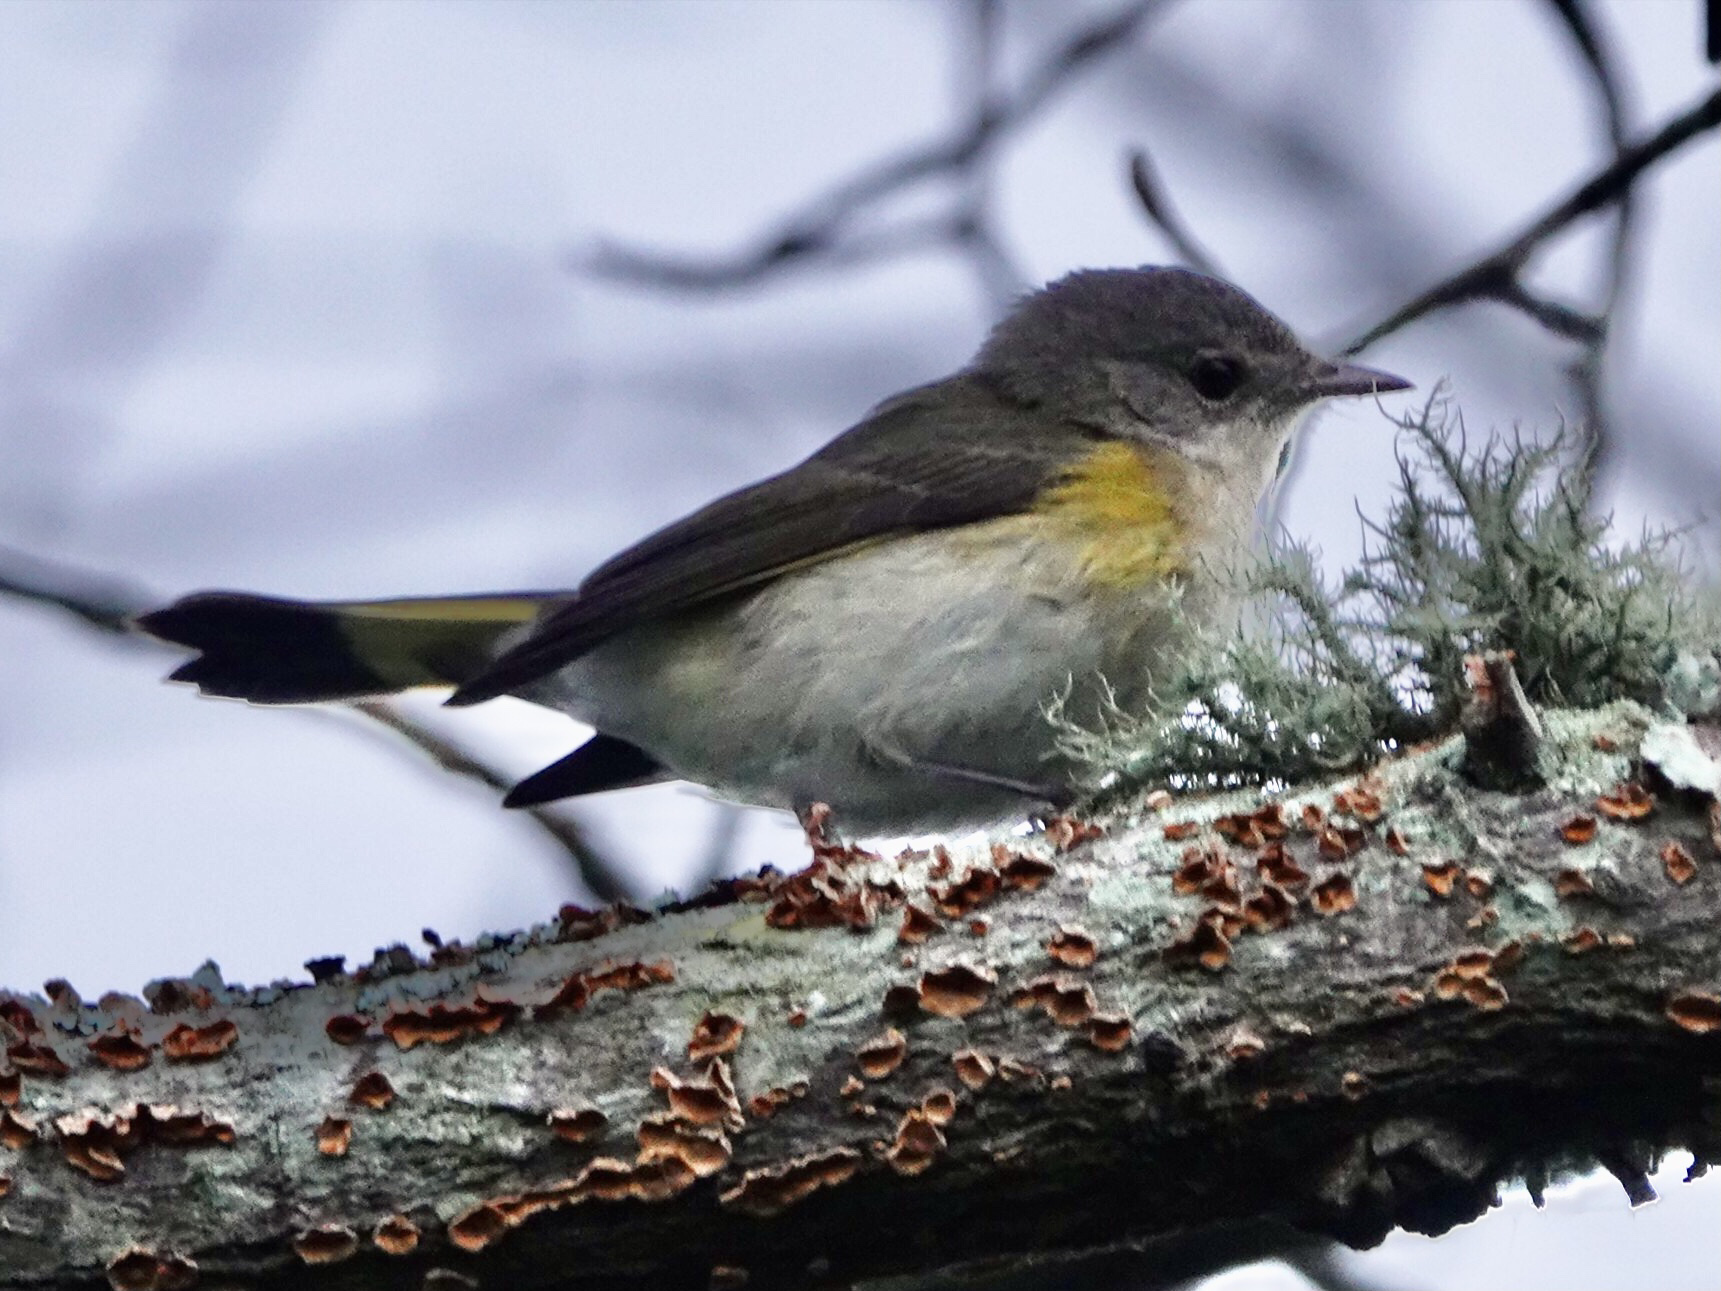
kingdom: Animalia
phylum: Chordata
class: Aves
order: Passeriformes
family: Parulidae
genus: Setophaga
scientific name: Setophaga ruticilla
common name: American redstart
